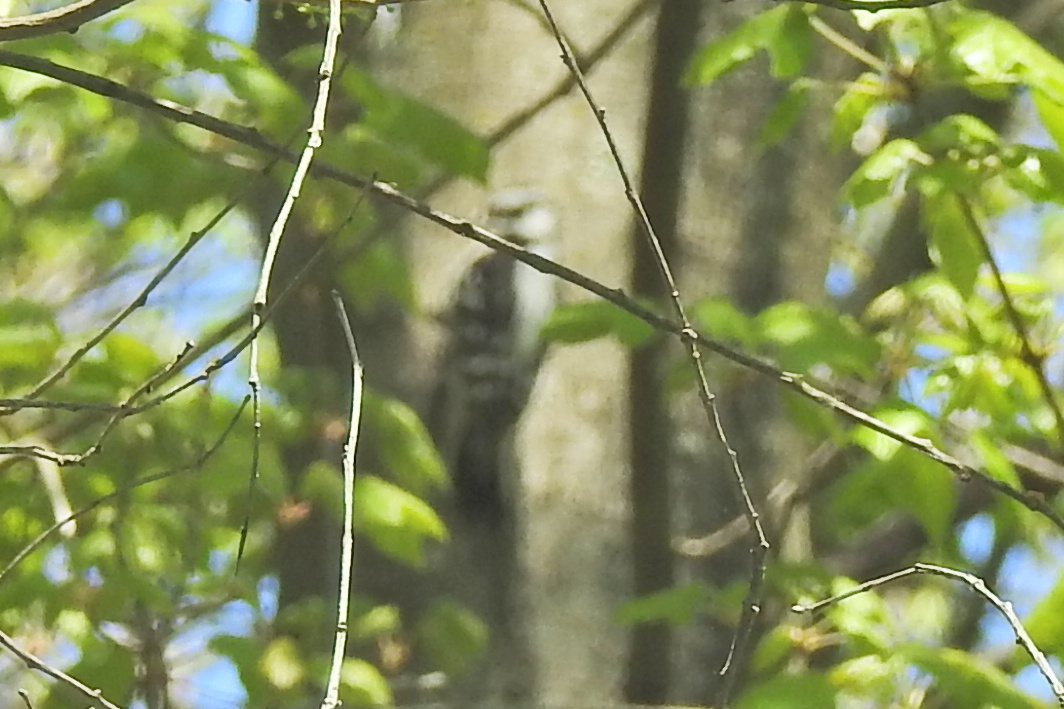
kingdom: Animalia
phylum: Chordata
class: Aves
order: Piciformes
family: Picidae
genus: Dryobates
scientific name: Dryobates pubescens
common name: Downy woodpecker
